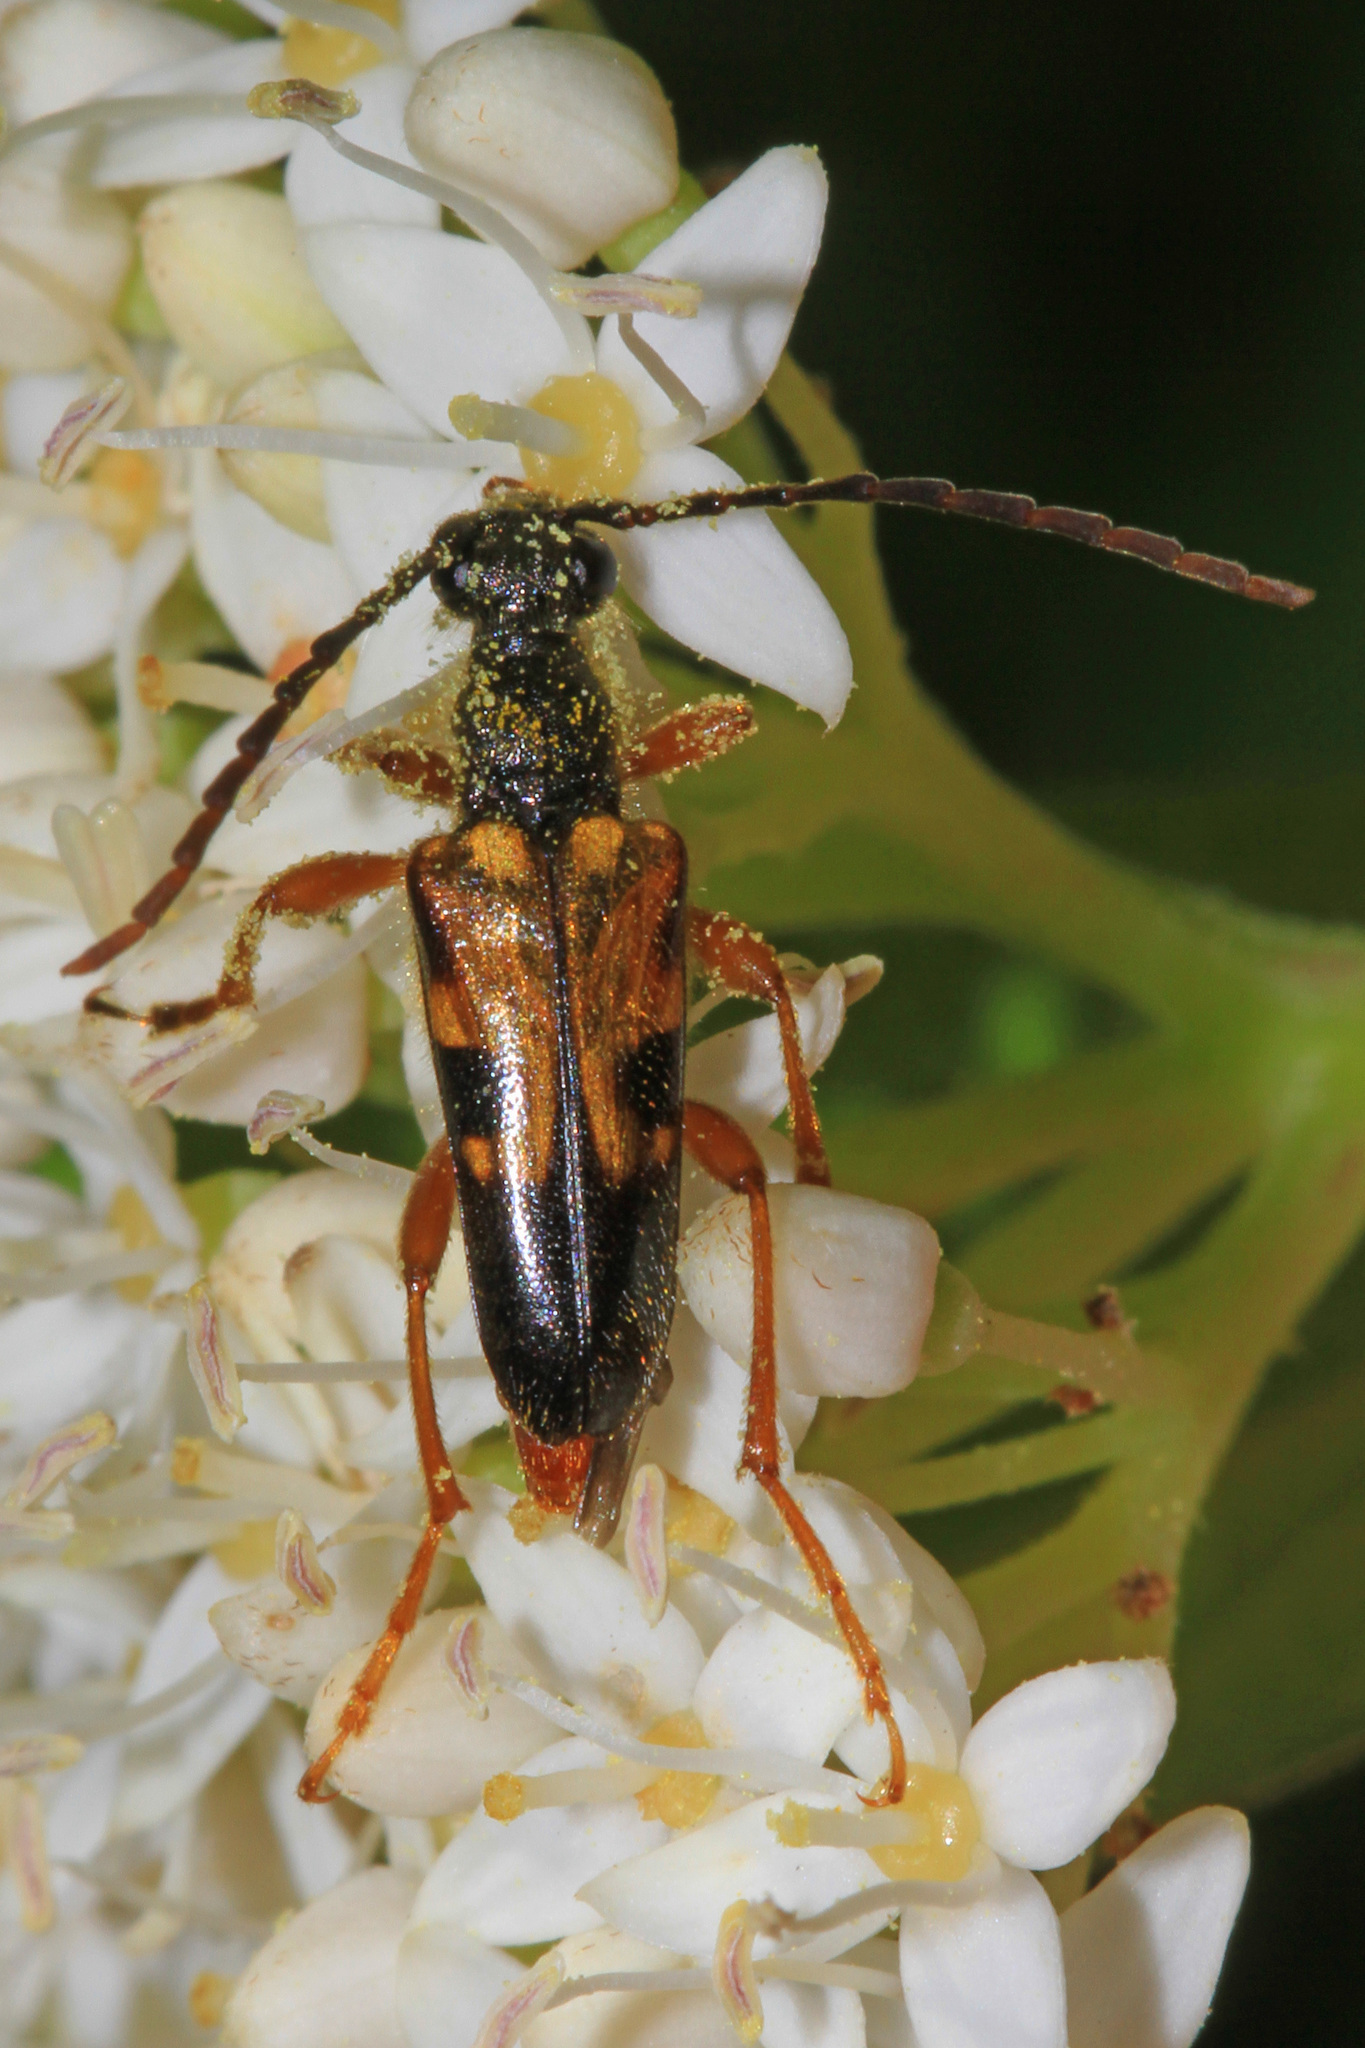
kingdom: Animalia
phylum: Arthropoda
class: Insecta
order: Coleoptera
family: Cerambycidae
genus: Xestoleptura
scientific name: Xestoleptura crassipes
